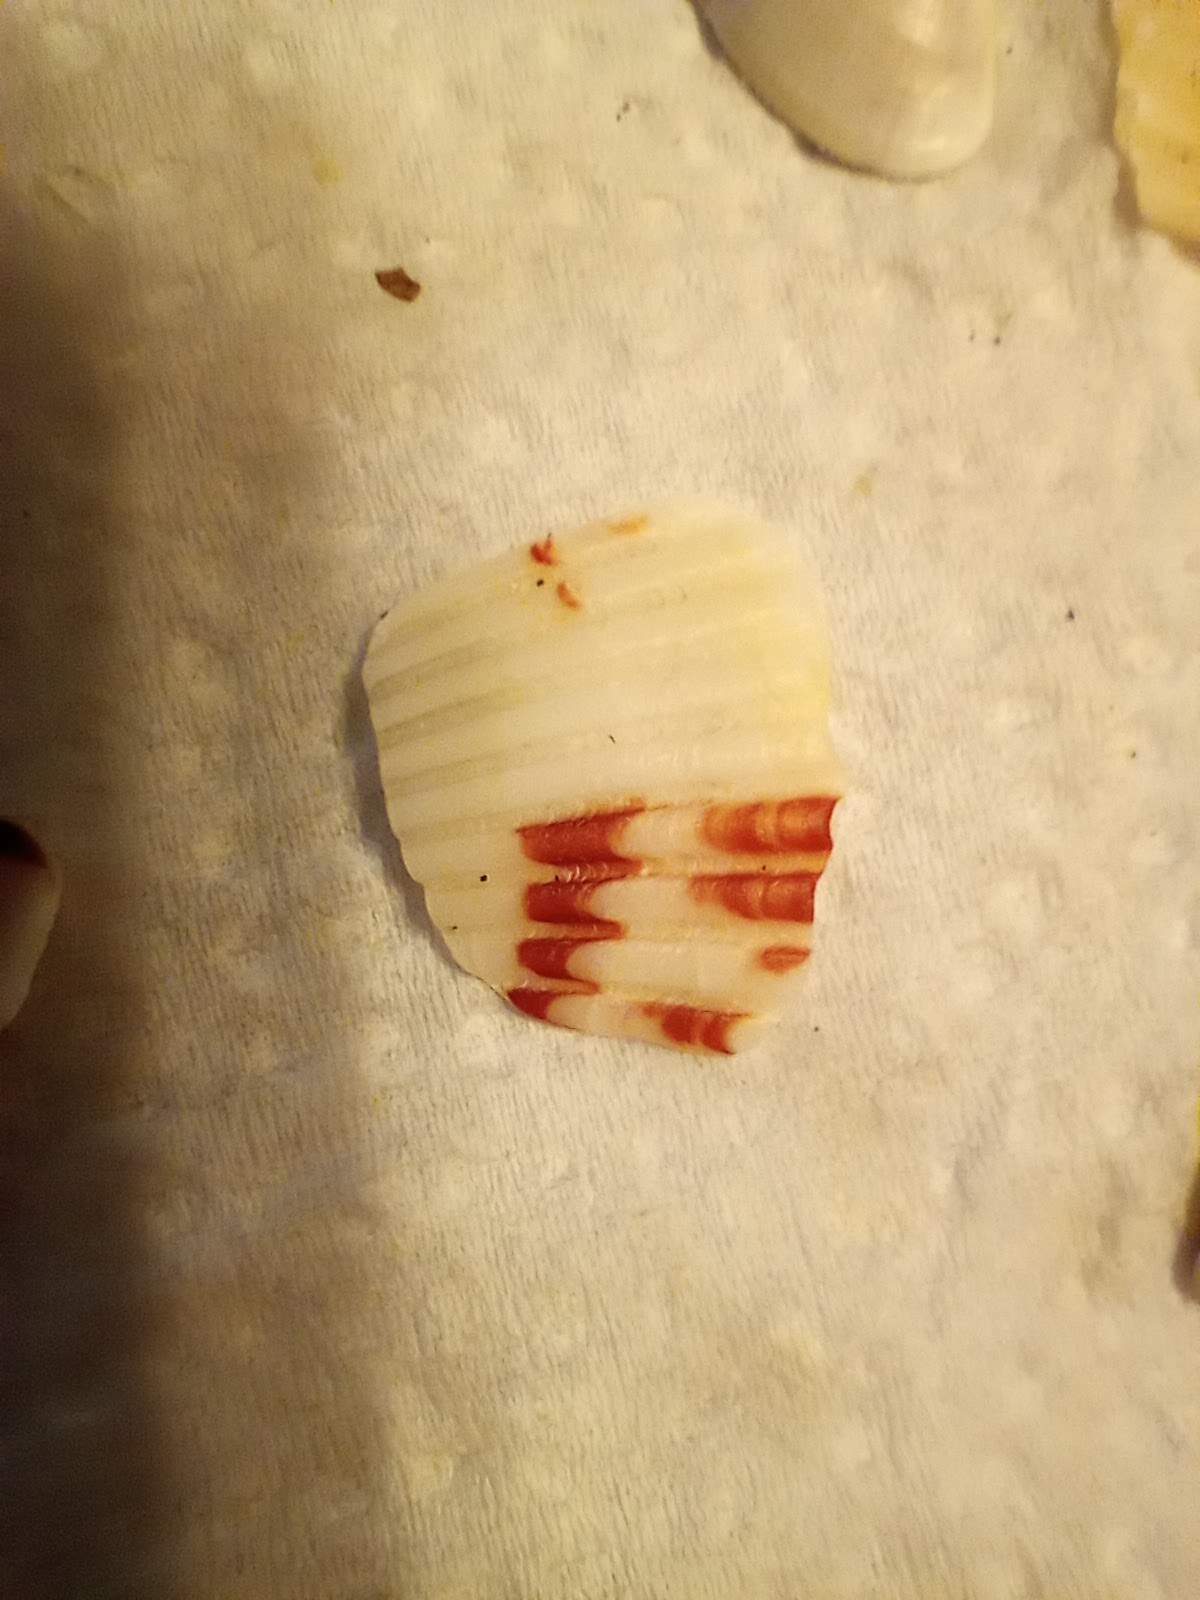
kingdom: Animalia
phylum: Mollusca
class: Bivalvia
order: Pectinida
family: Pectinidae
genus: Argopecten
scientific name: Argopecten ventricosus
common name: Catarina scallop
